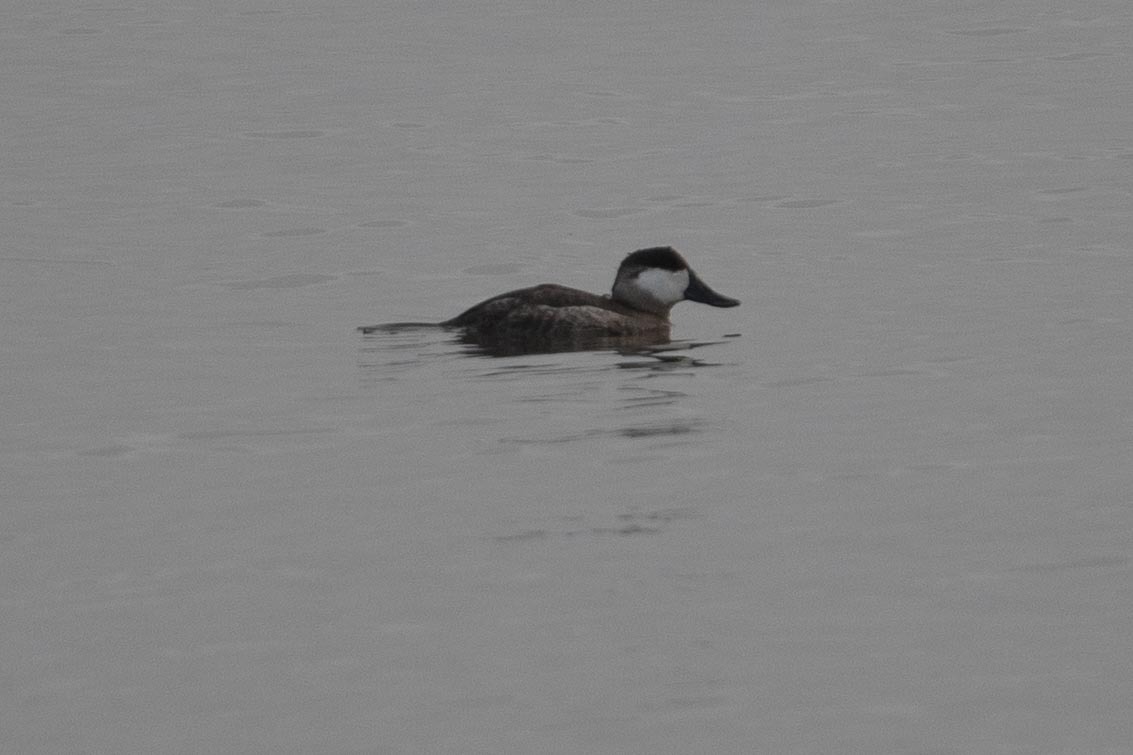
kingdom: Animalia
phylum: Chordata
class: Aves
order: Anseriformes
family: Anatidae
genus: Oxyura
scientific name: Oxyura jamaicensis
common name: Ruddy duck
